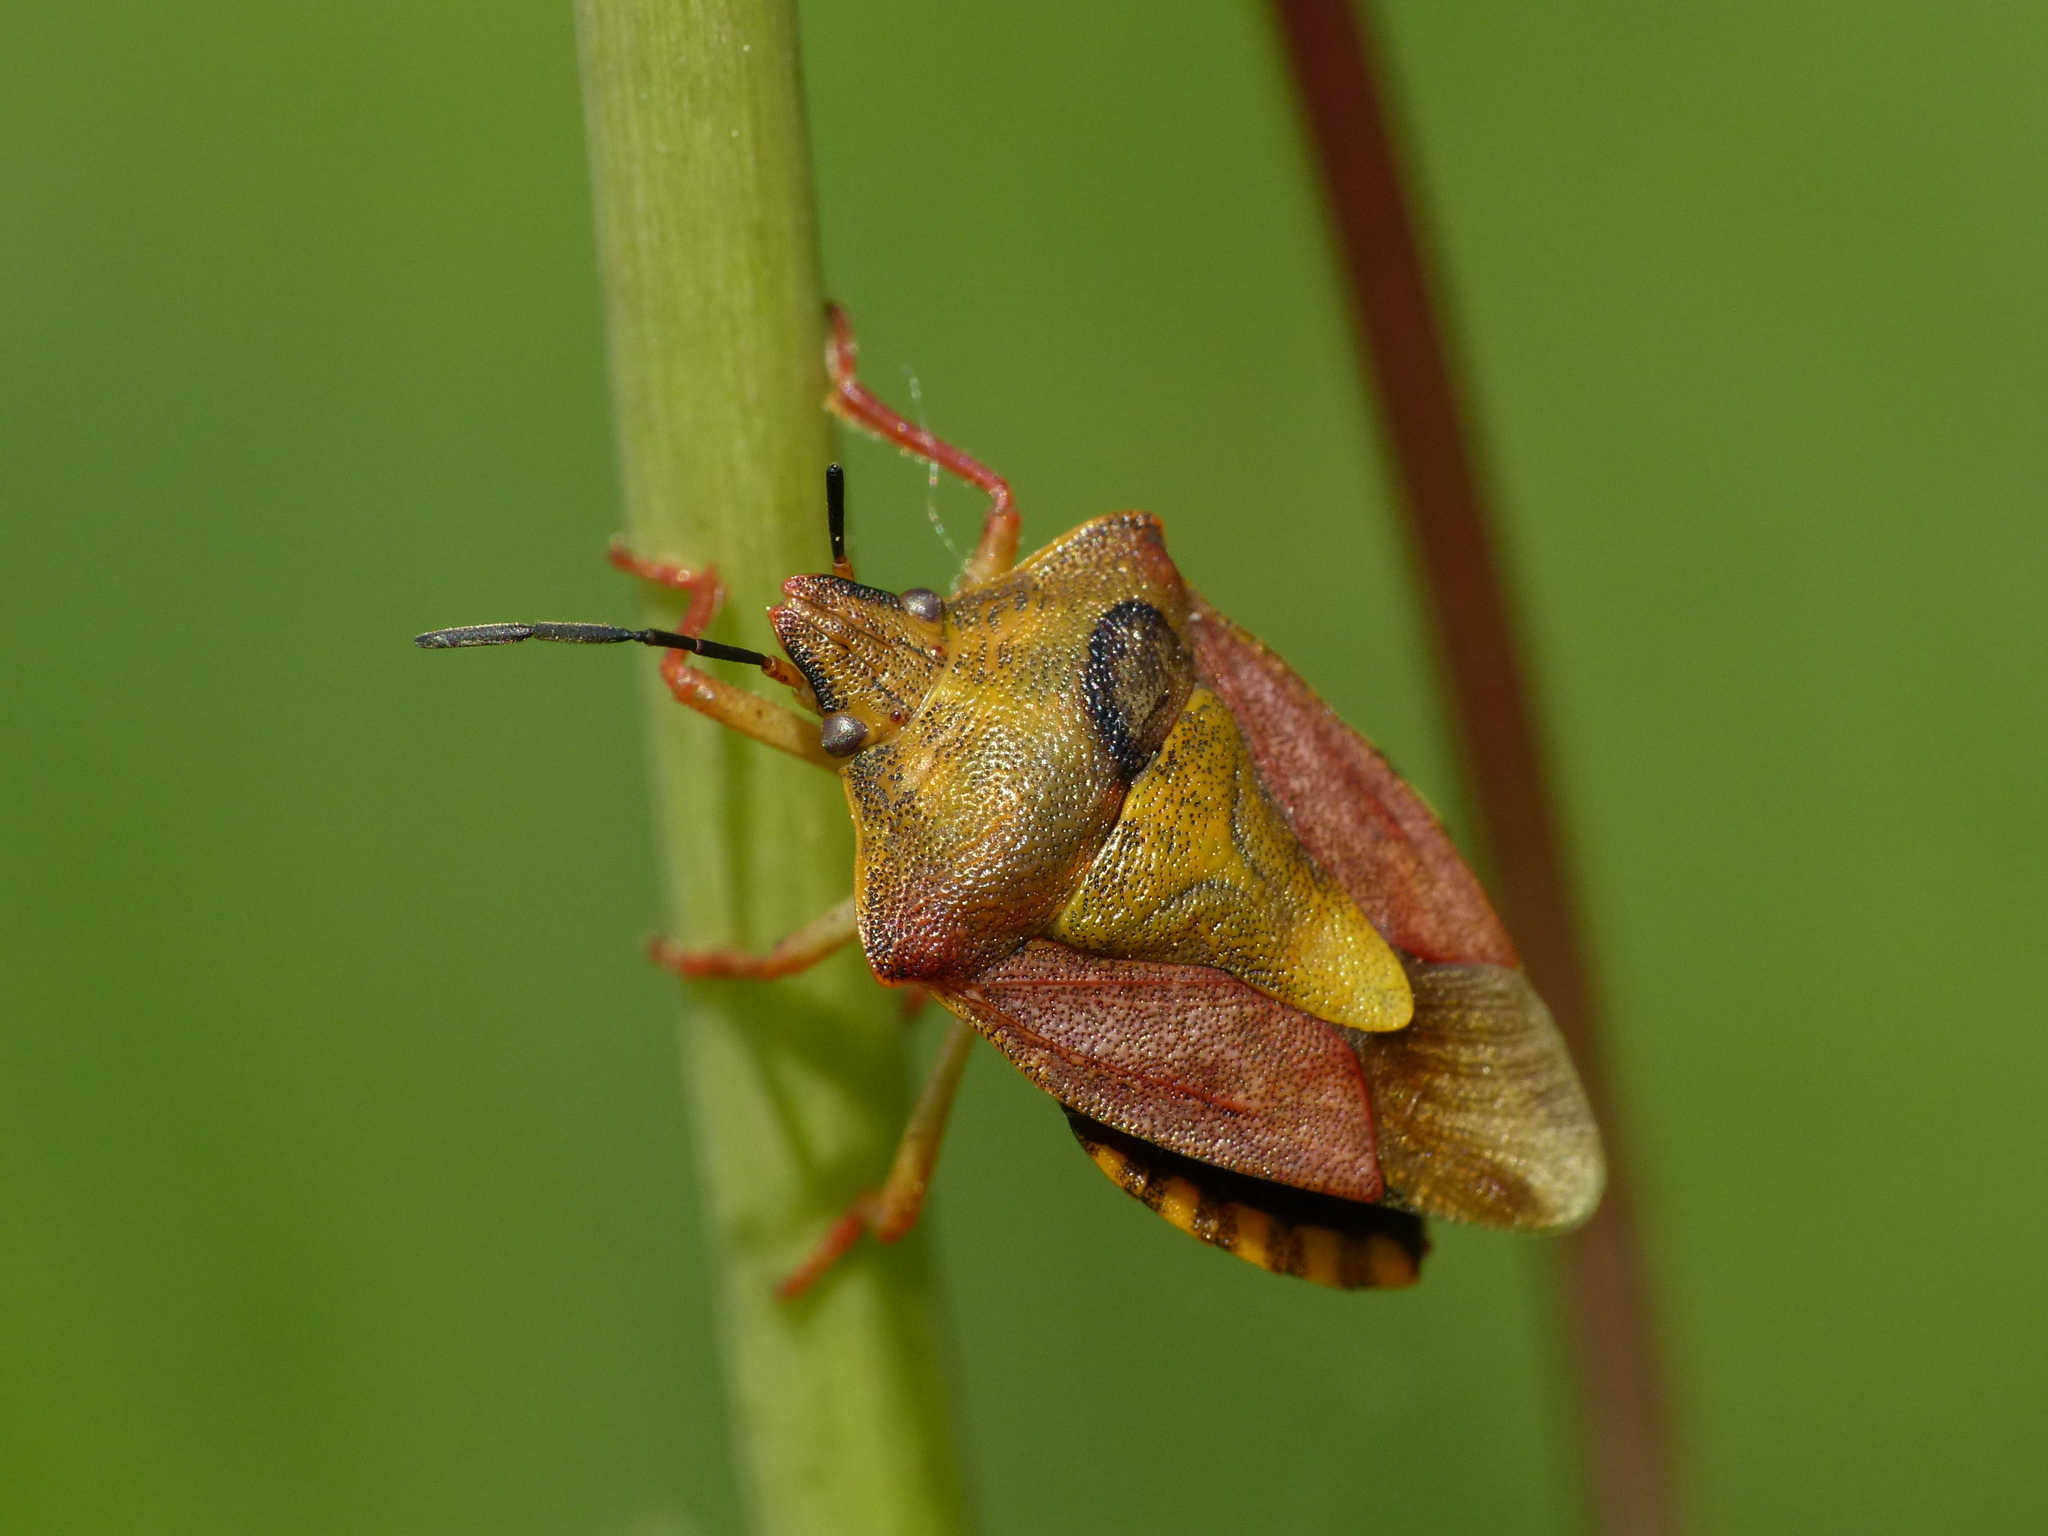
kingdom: Animalia
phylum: Arthropoda
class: Insecta
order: Hemiptera
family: Pentatomidae
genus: Carpocoris
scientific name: Carpocoris purpureipennis
